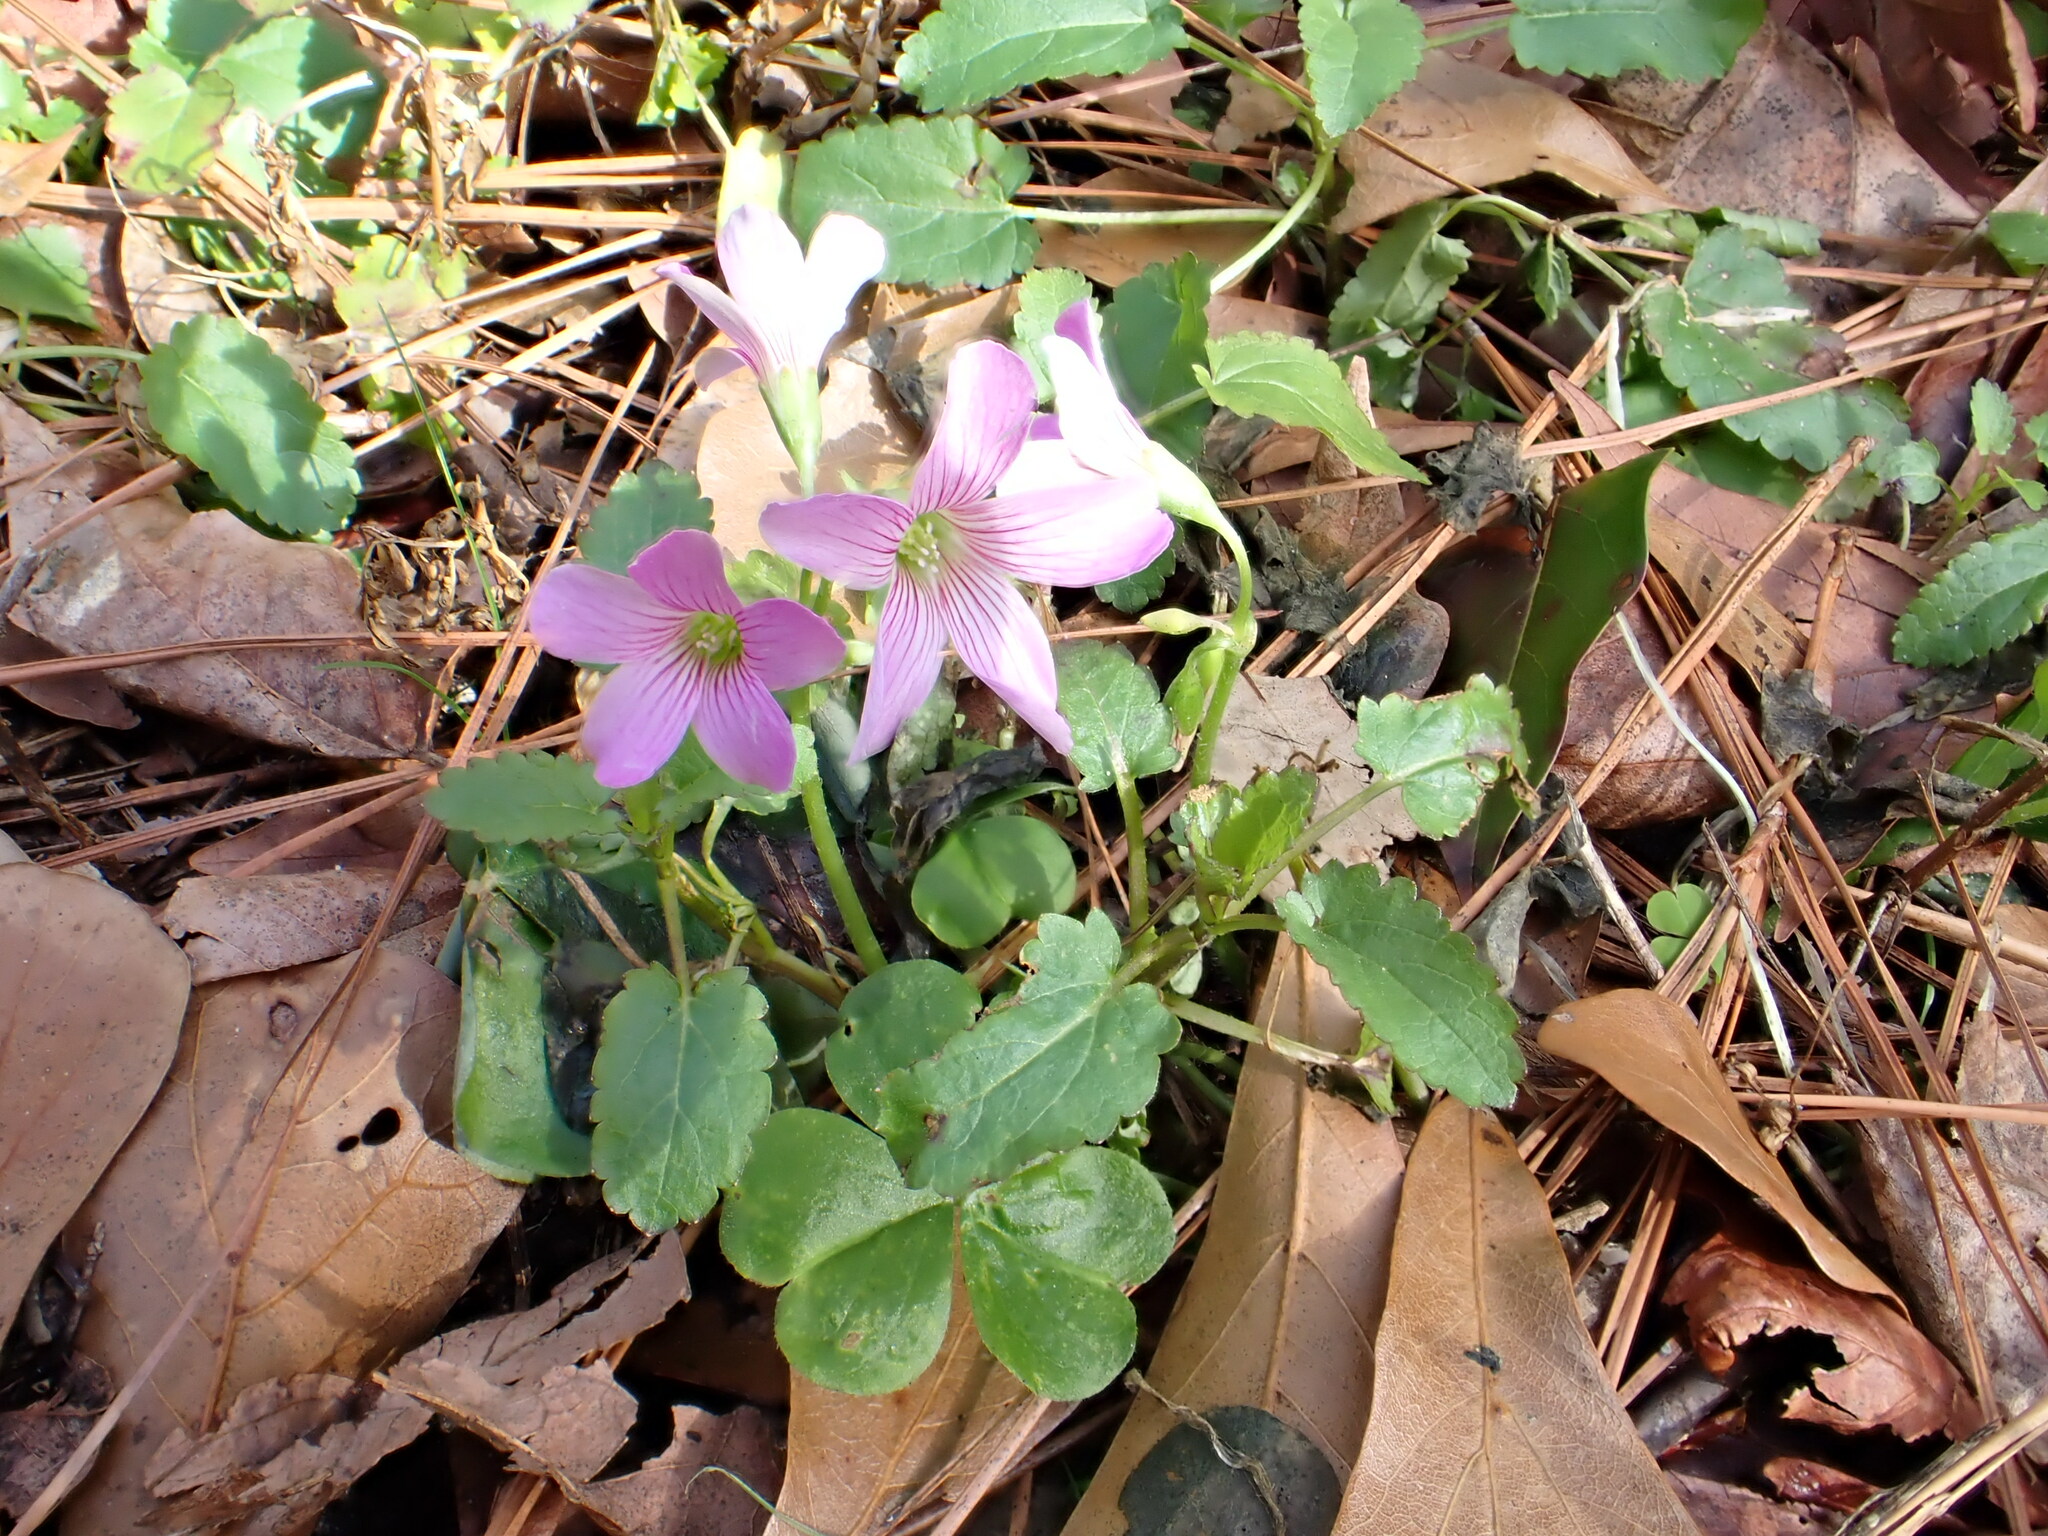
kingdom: Plantae
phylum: Tracheophyta
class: Magnoliopsida
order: Oxalidales
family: Oxalidaceae
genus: Oxalis
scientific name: Oxalis debilis
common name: Large-flowered pink-sorrel
